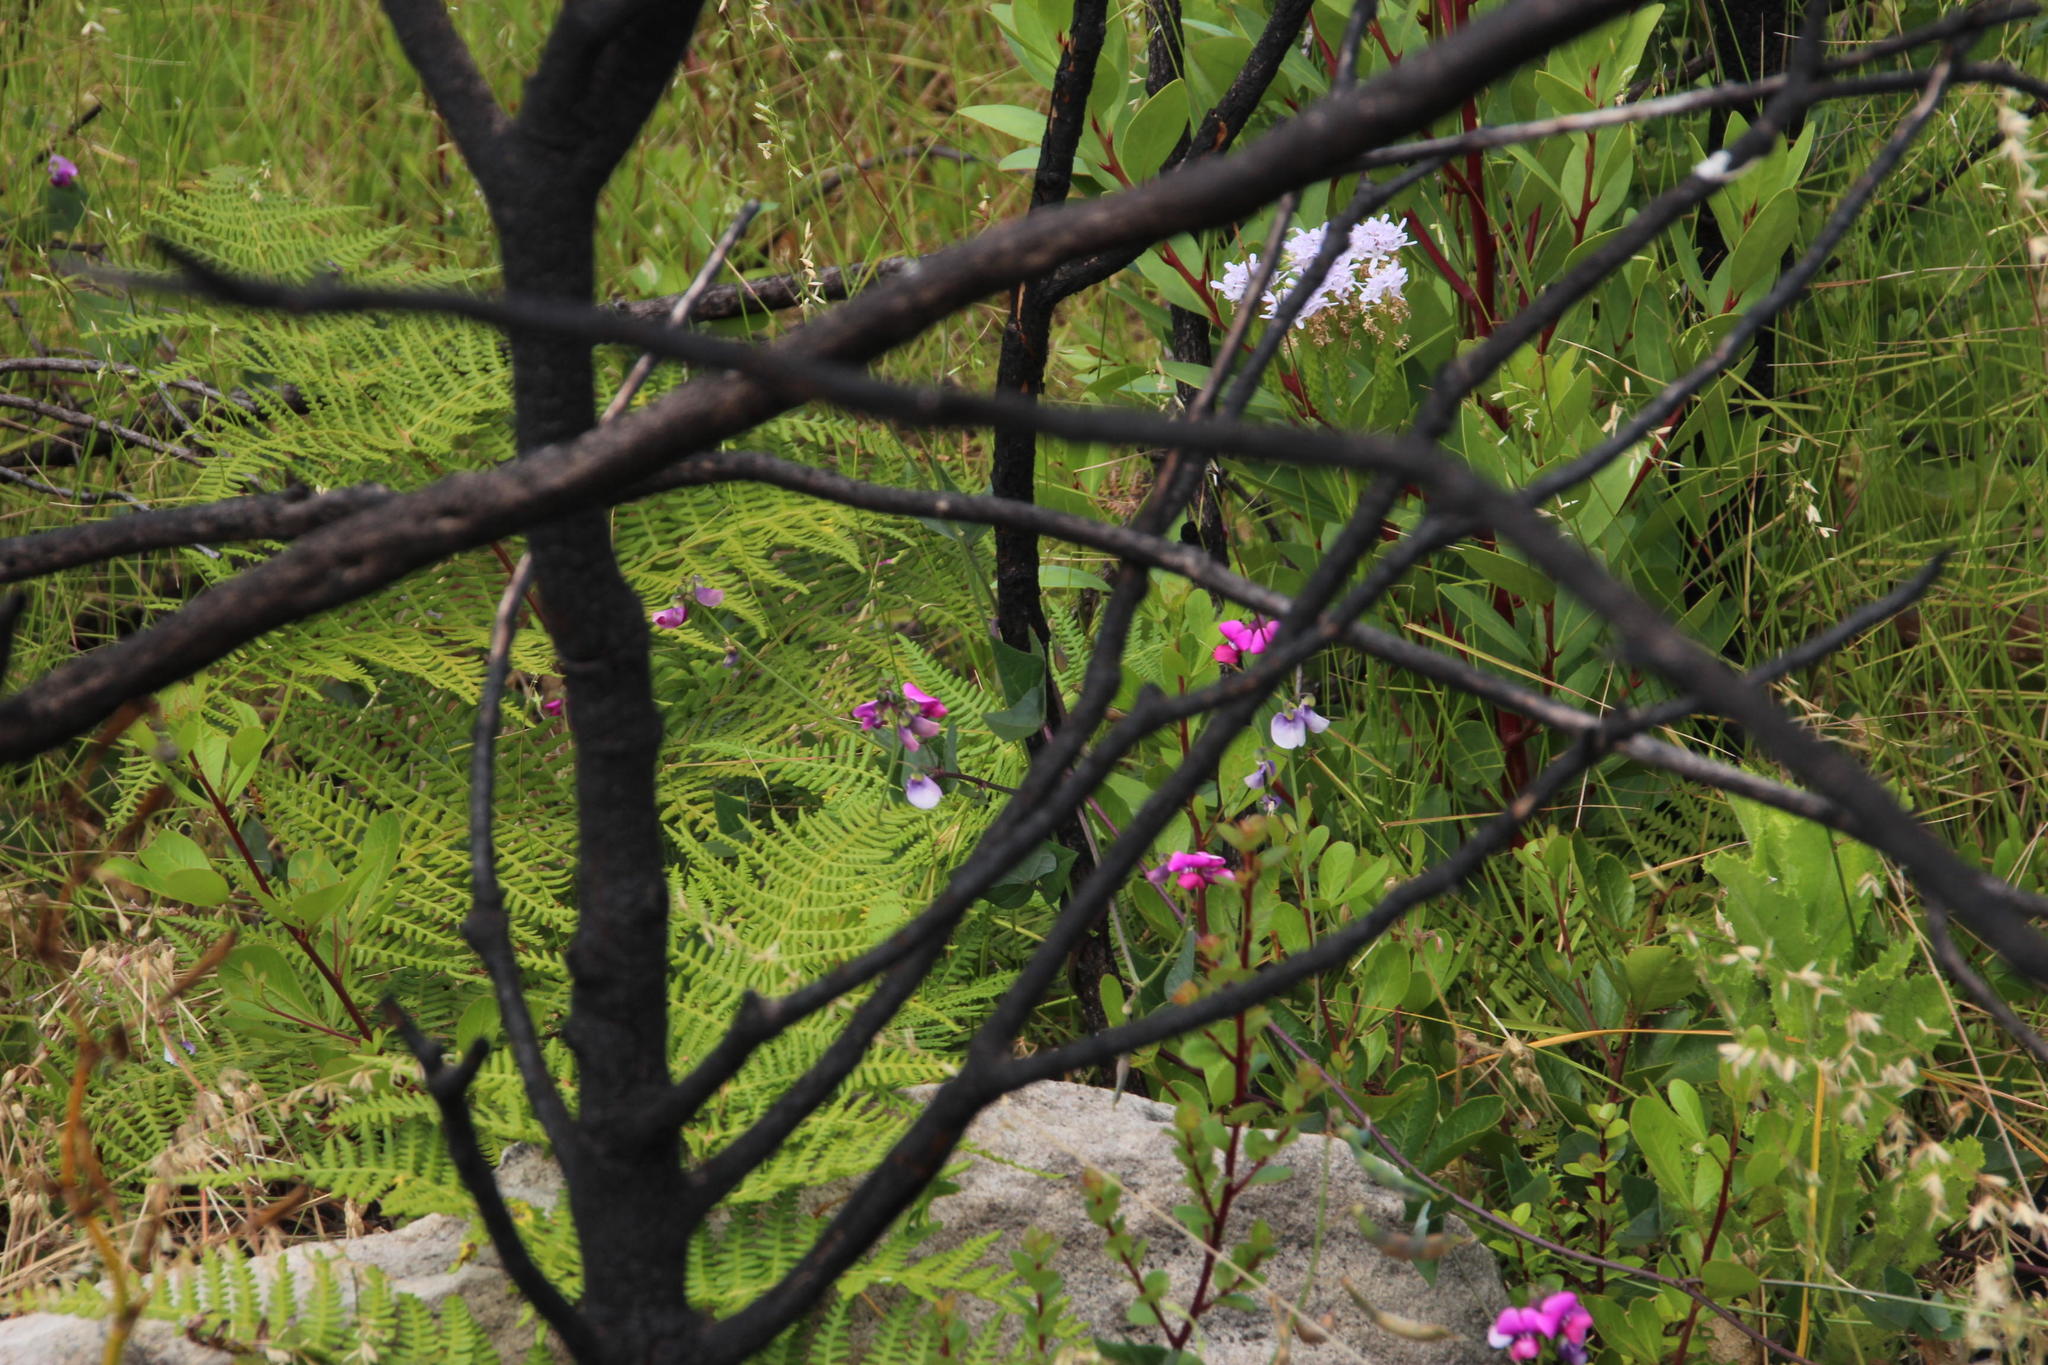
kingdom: Plantae
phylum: Tracheophyta
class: Magnoliopsida
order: Fabales
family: Fabaceae
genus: Dipogon
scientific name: Dipogon lignosus
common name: Okie bean
